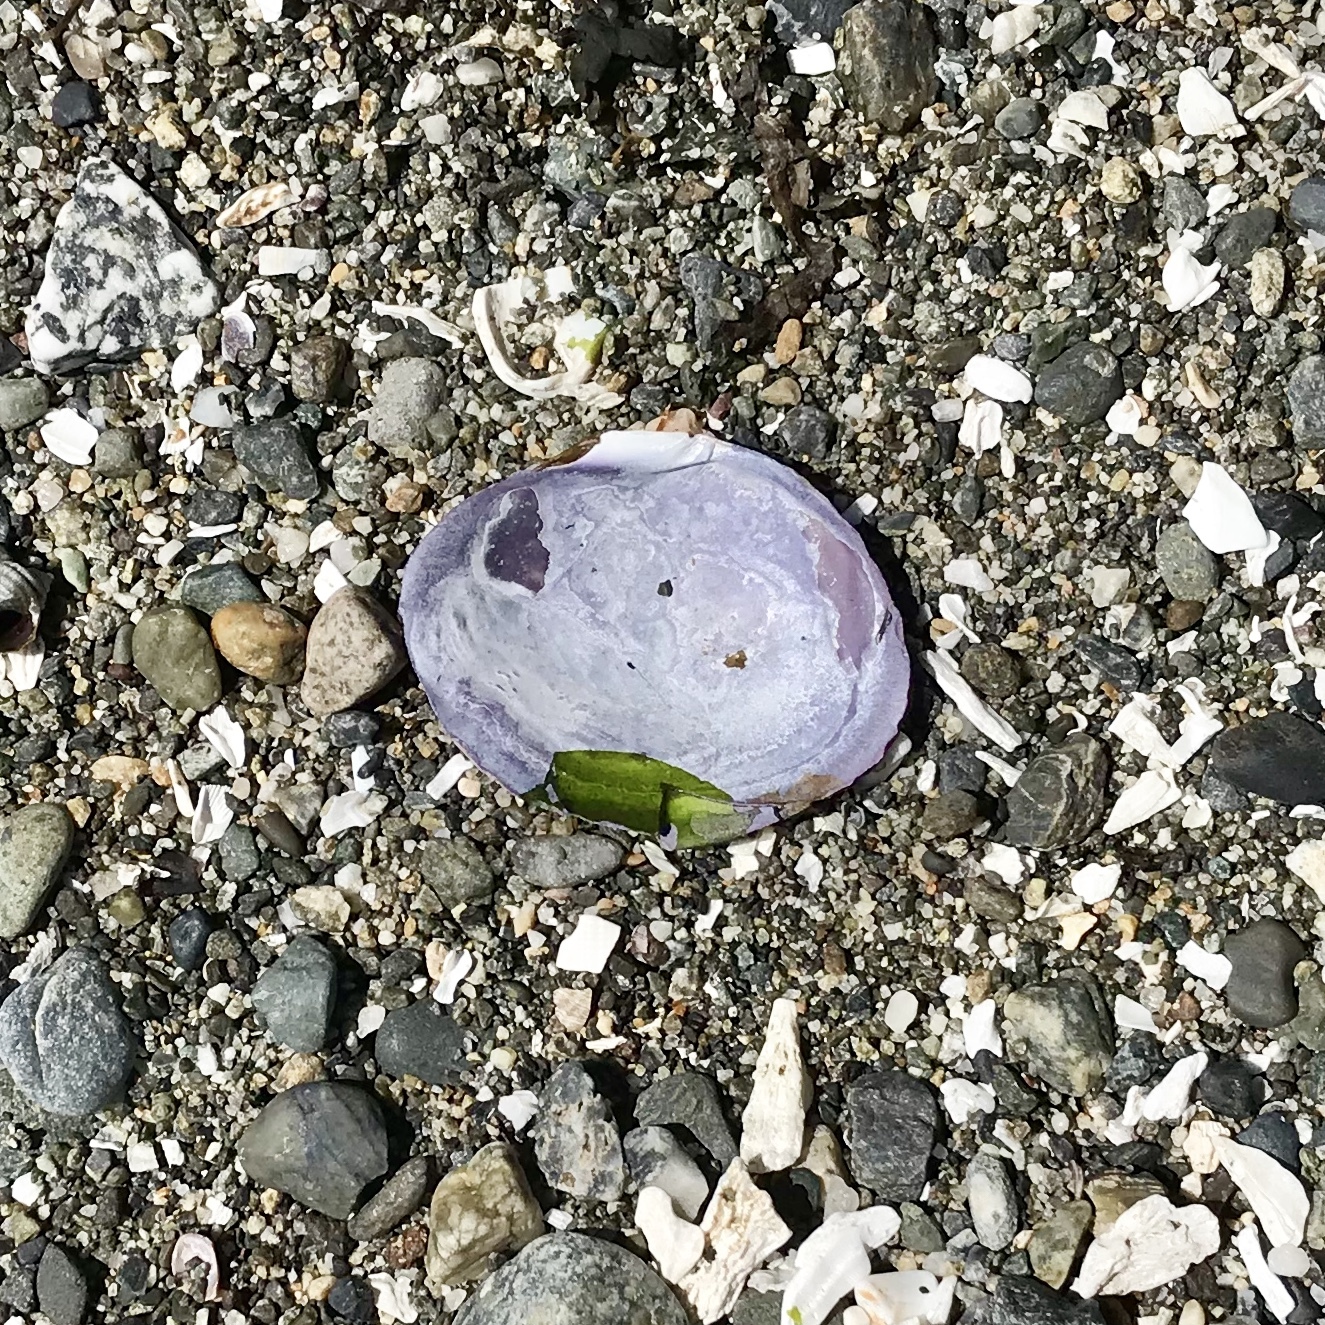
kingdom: Animalia
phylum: Mollusca
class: Bivalvia
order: Cardiida
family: Psammobiidae
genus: Nuttallia
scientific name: Nuttallia obscurata
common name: Purple mahogany-clam
